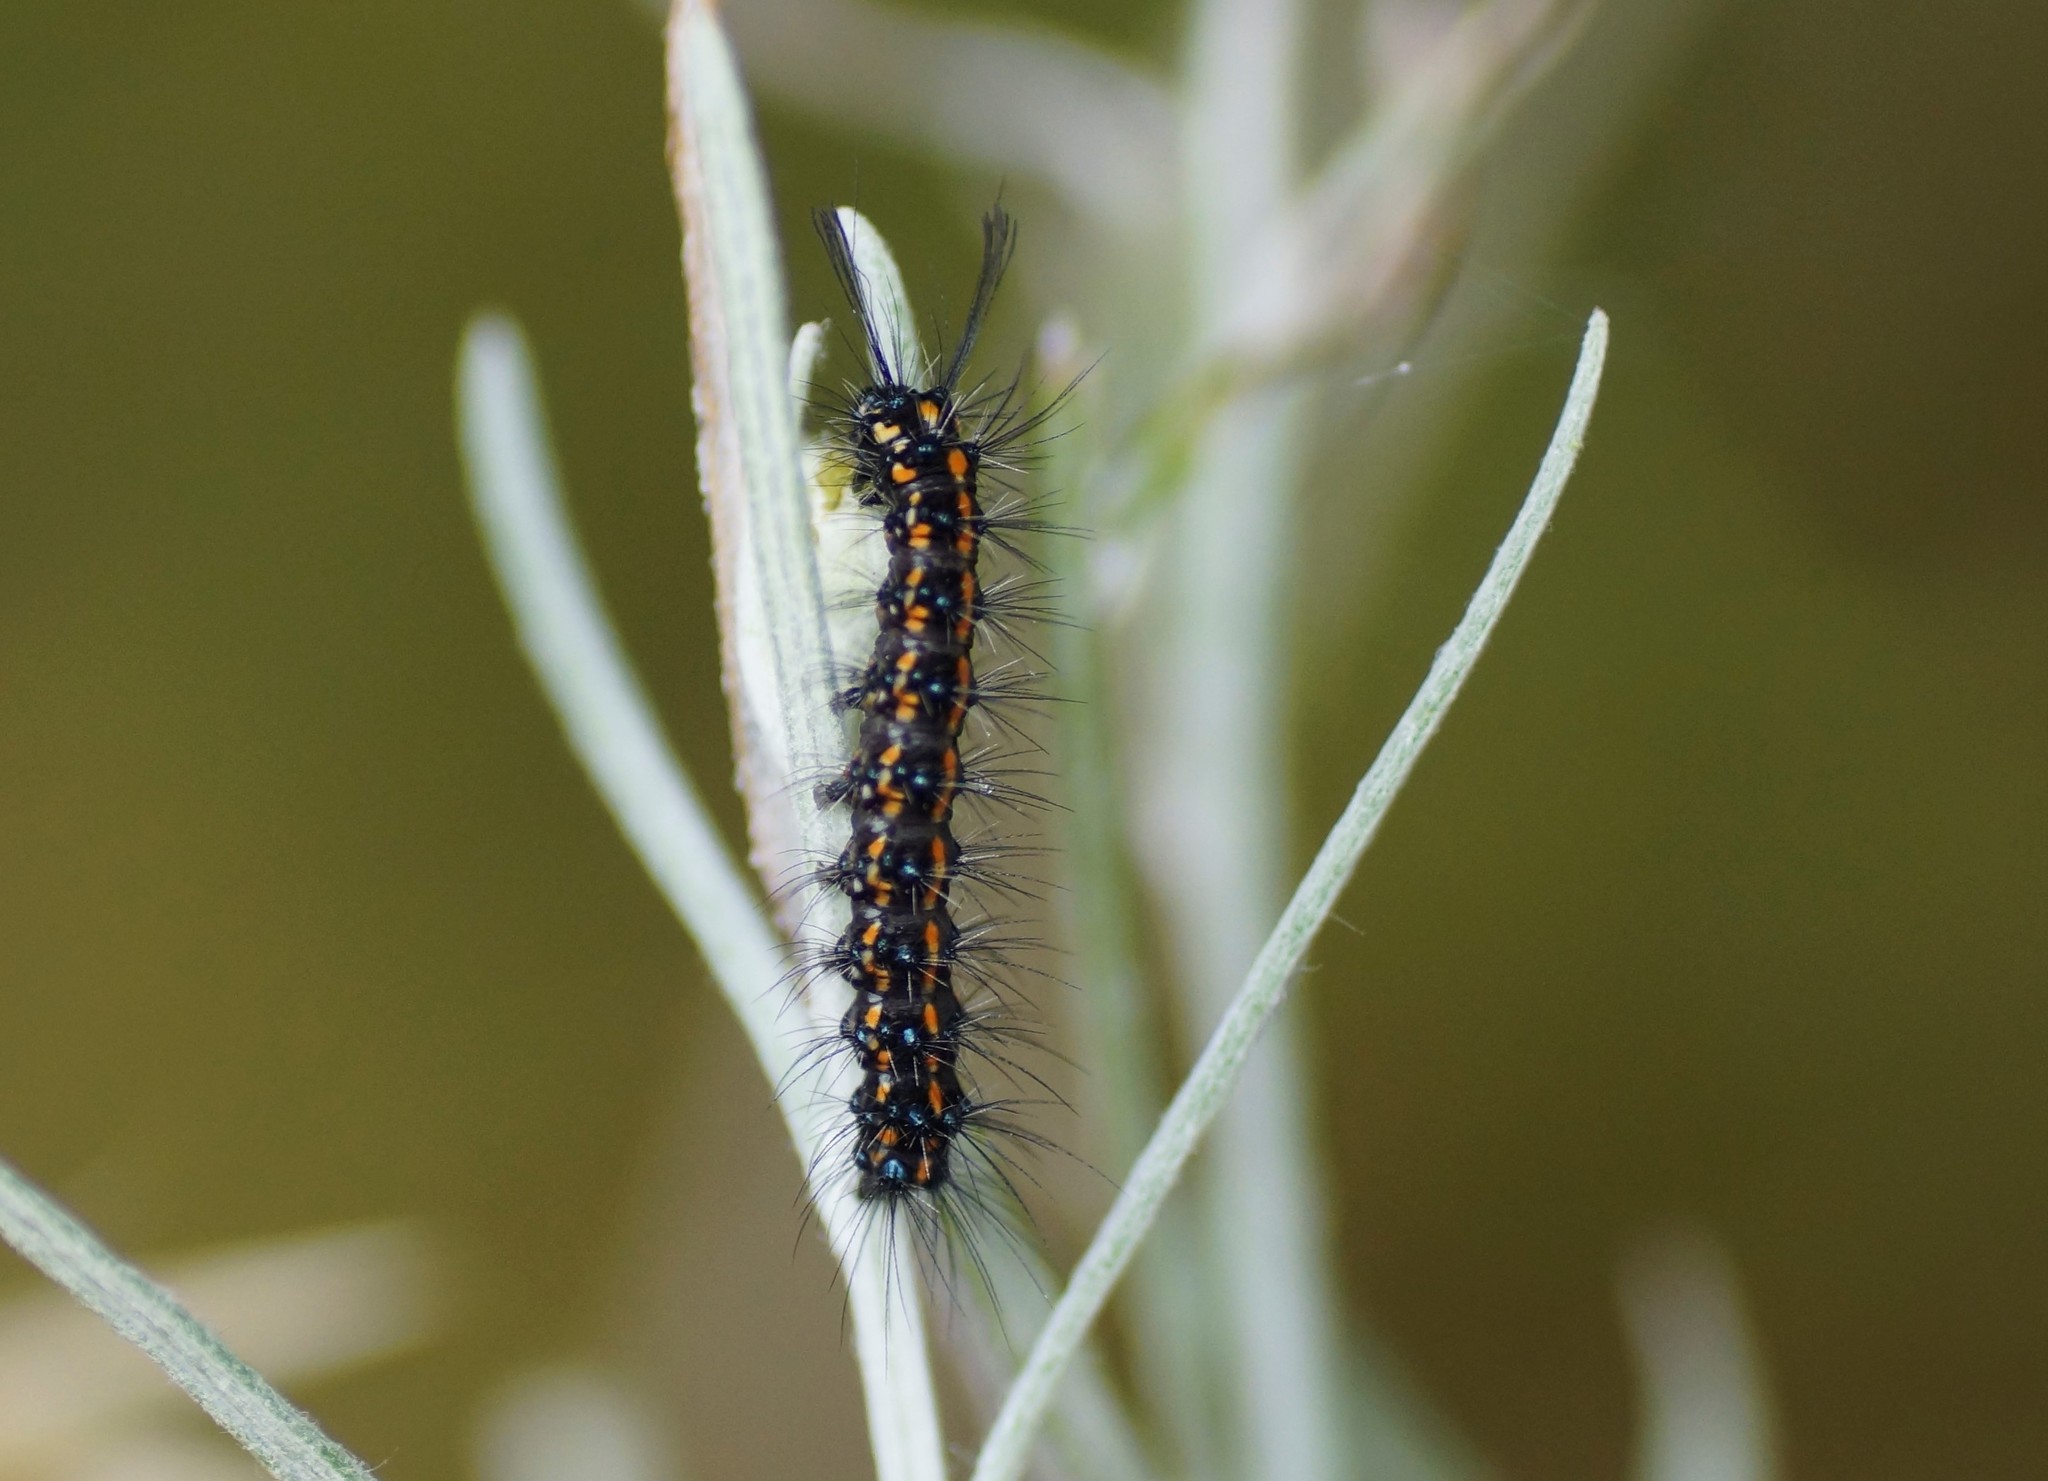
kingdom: Animalia
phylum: Arthropoda
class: Insecta
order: Lepidoptera
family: Erebidae
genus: Nyctemera
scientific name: Nyctemera amicus
